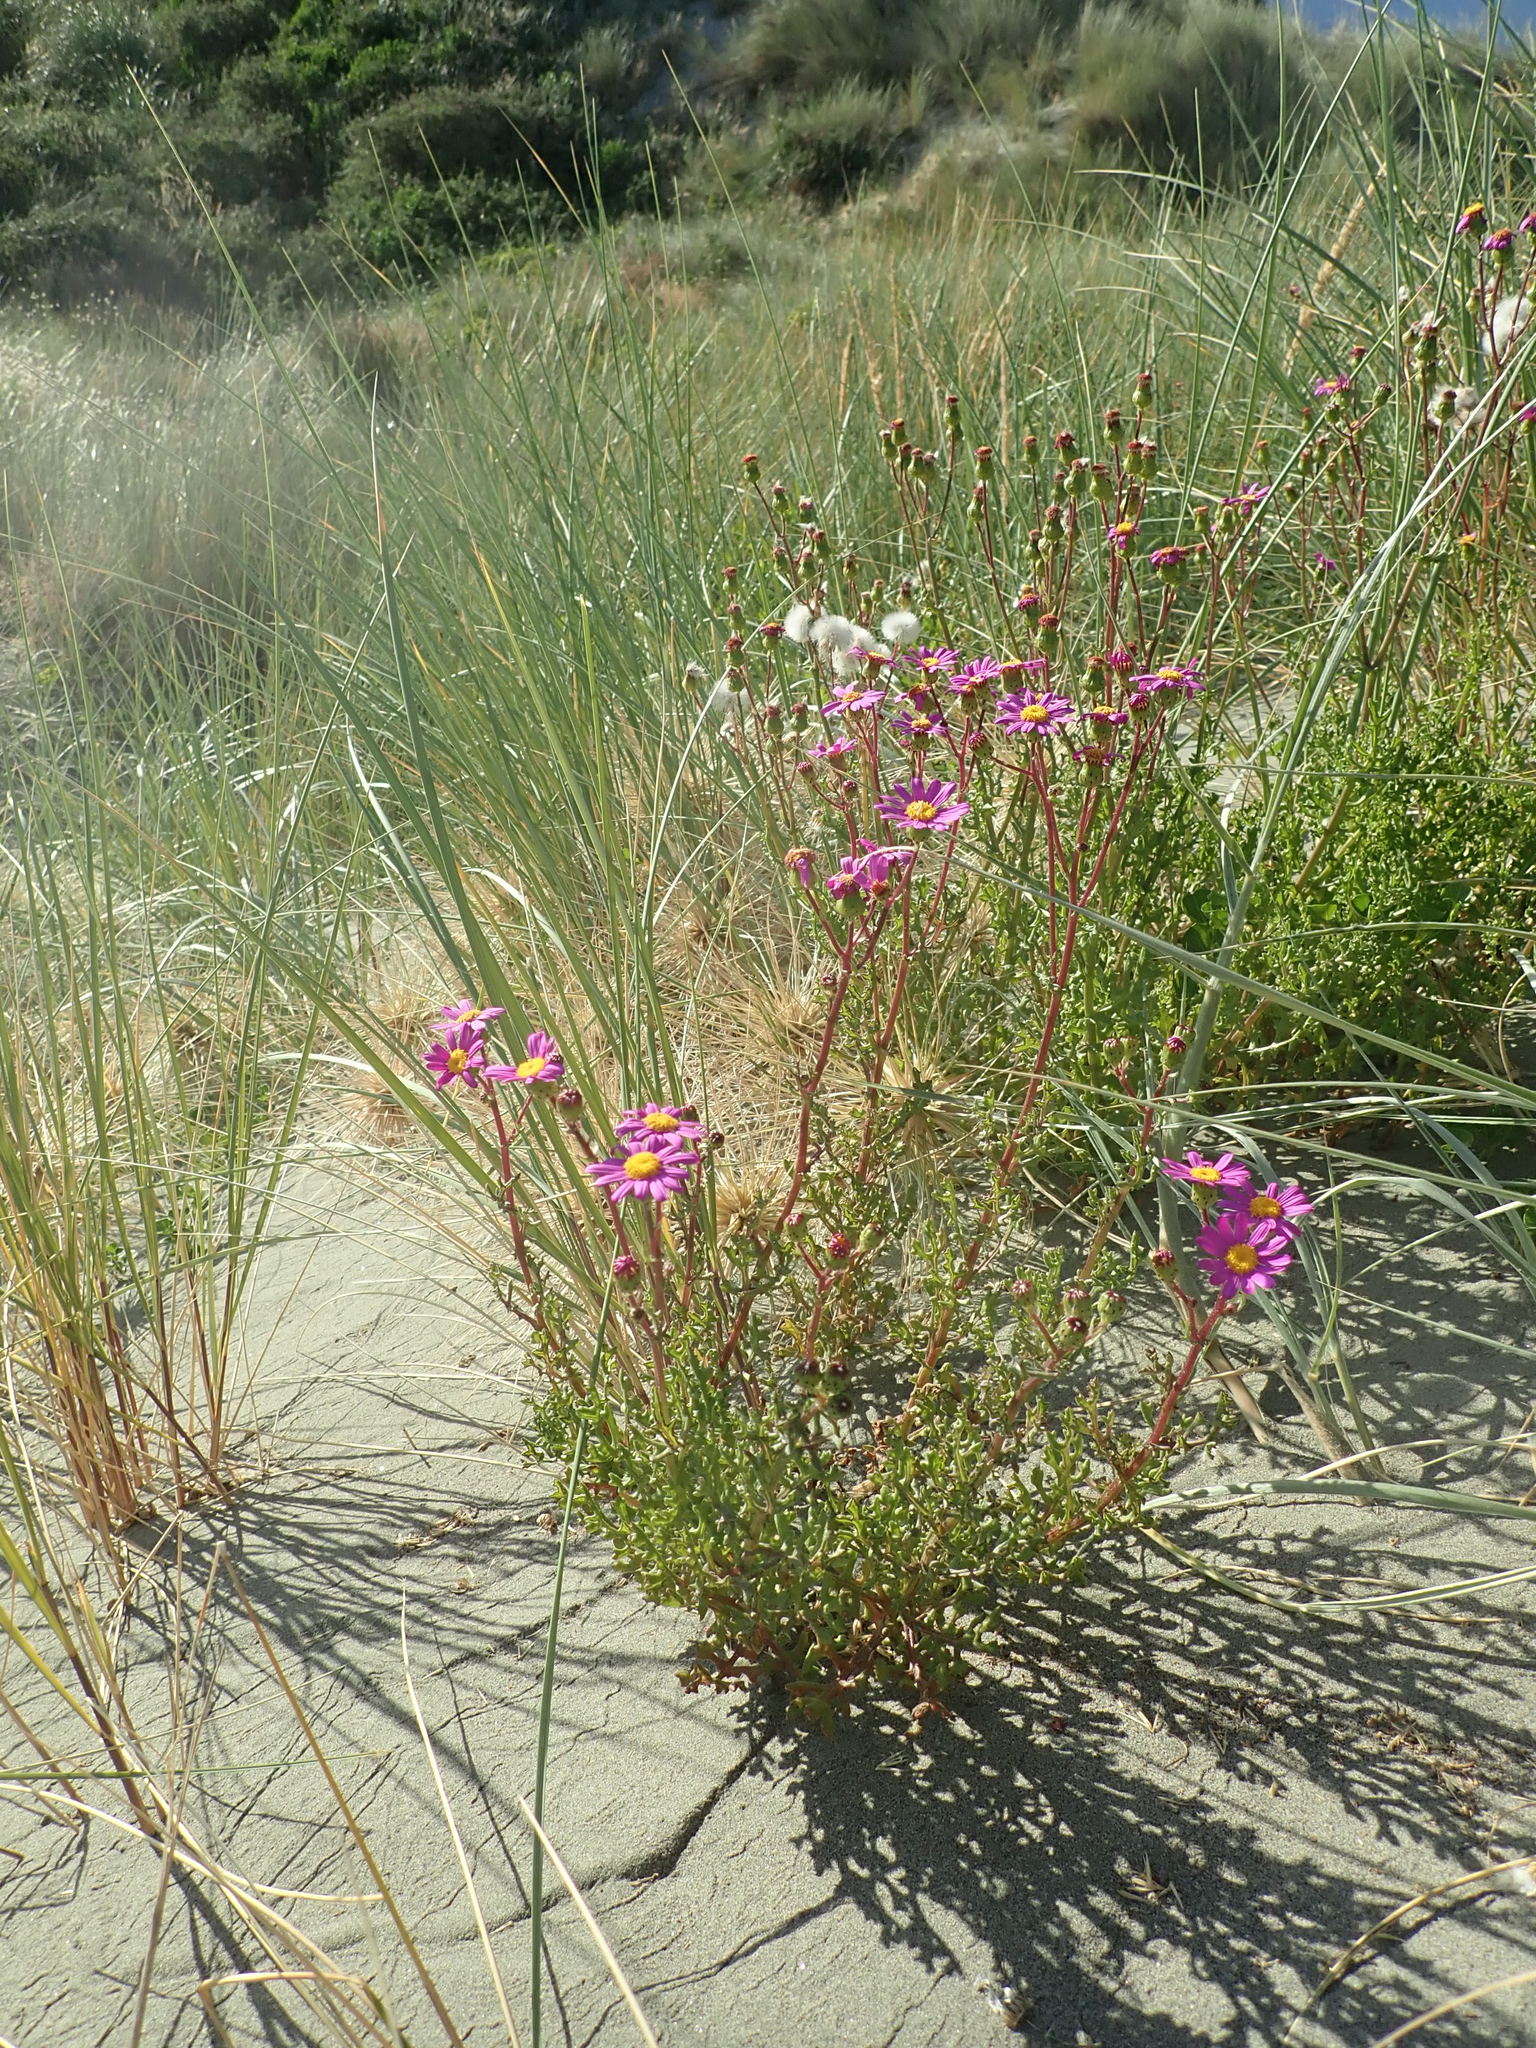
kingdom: Plantae
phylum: Tracheophyta
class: Magnoliopsida
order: Asterales
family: Asteraceae
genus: Senecio
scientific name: Senecio elegans
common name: Purple groundsel
